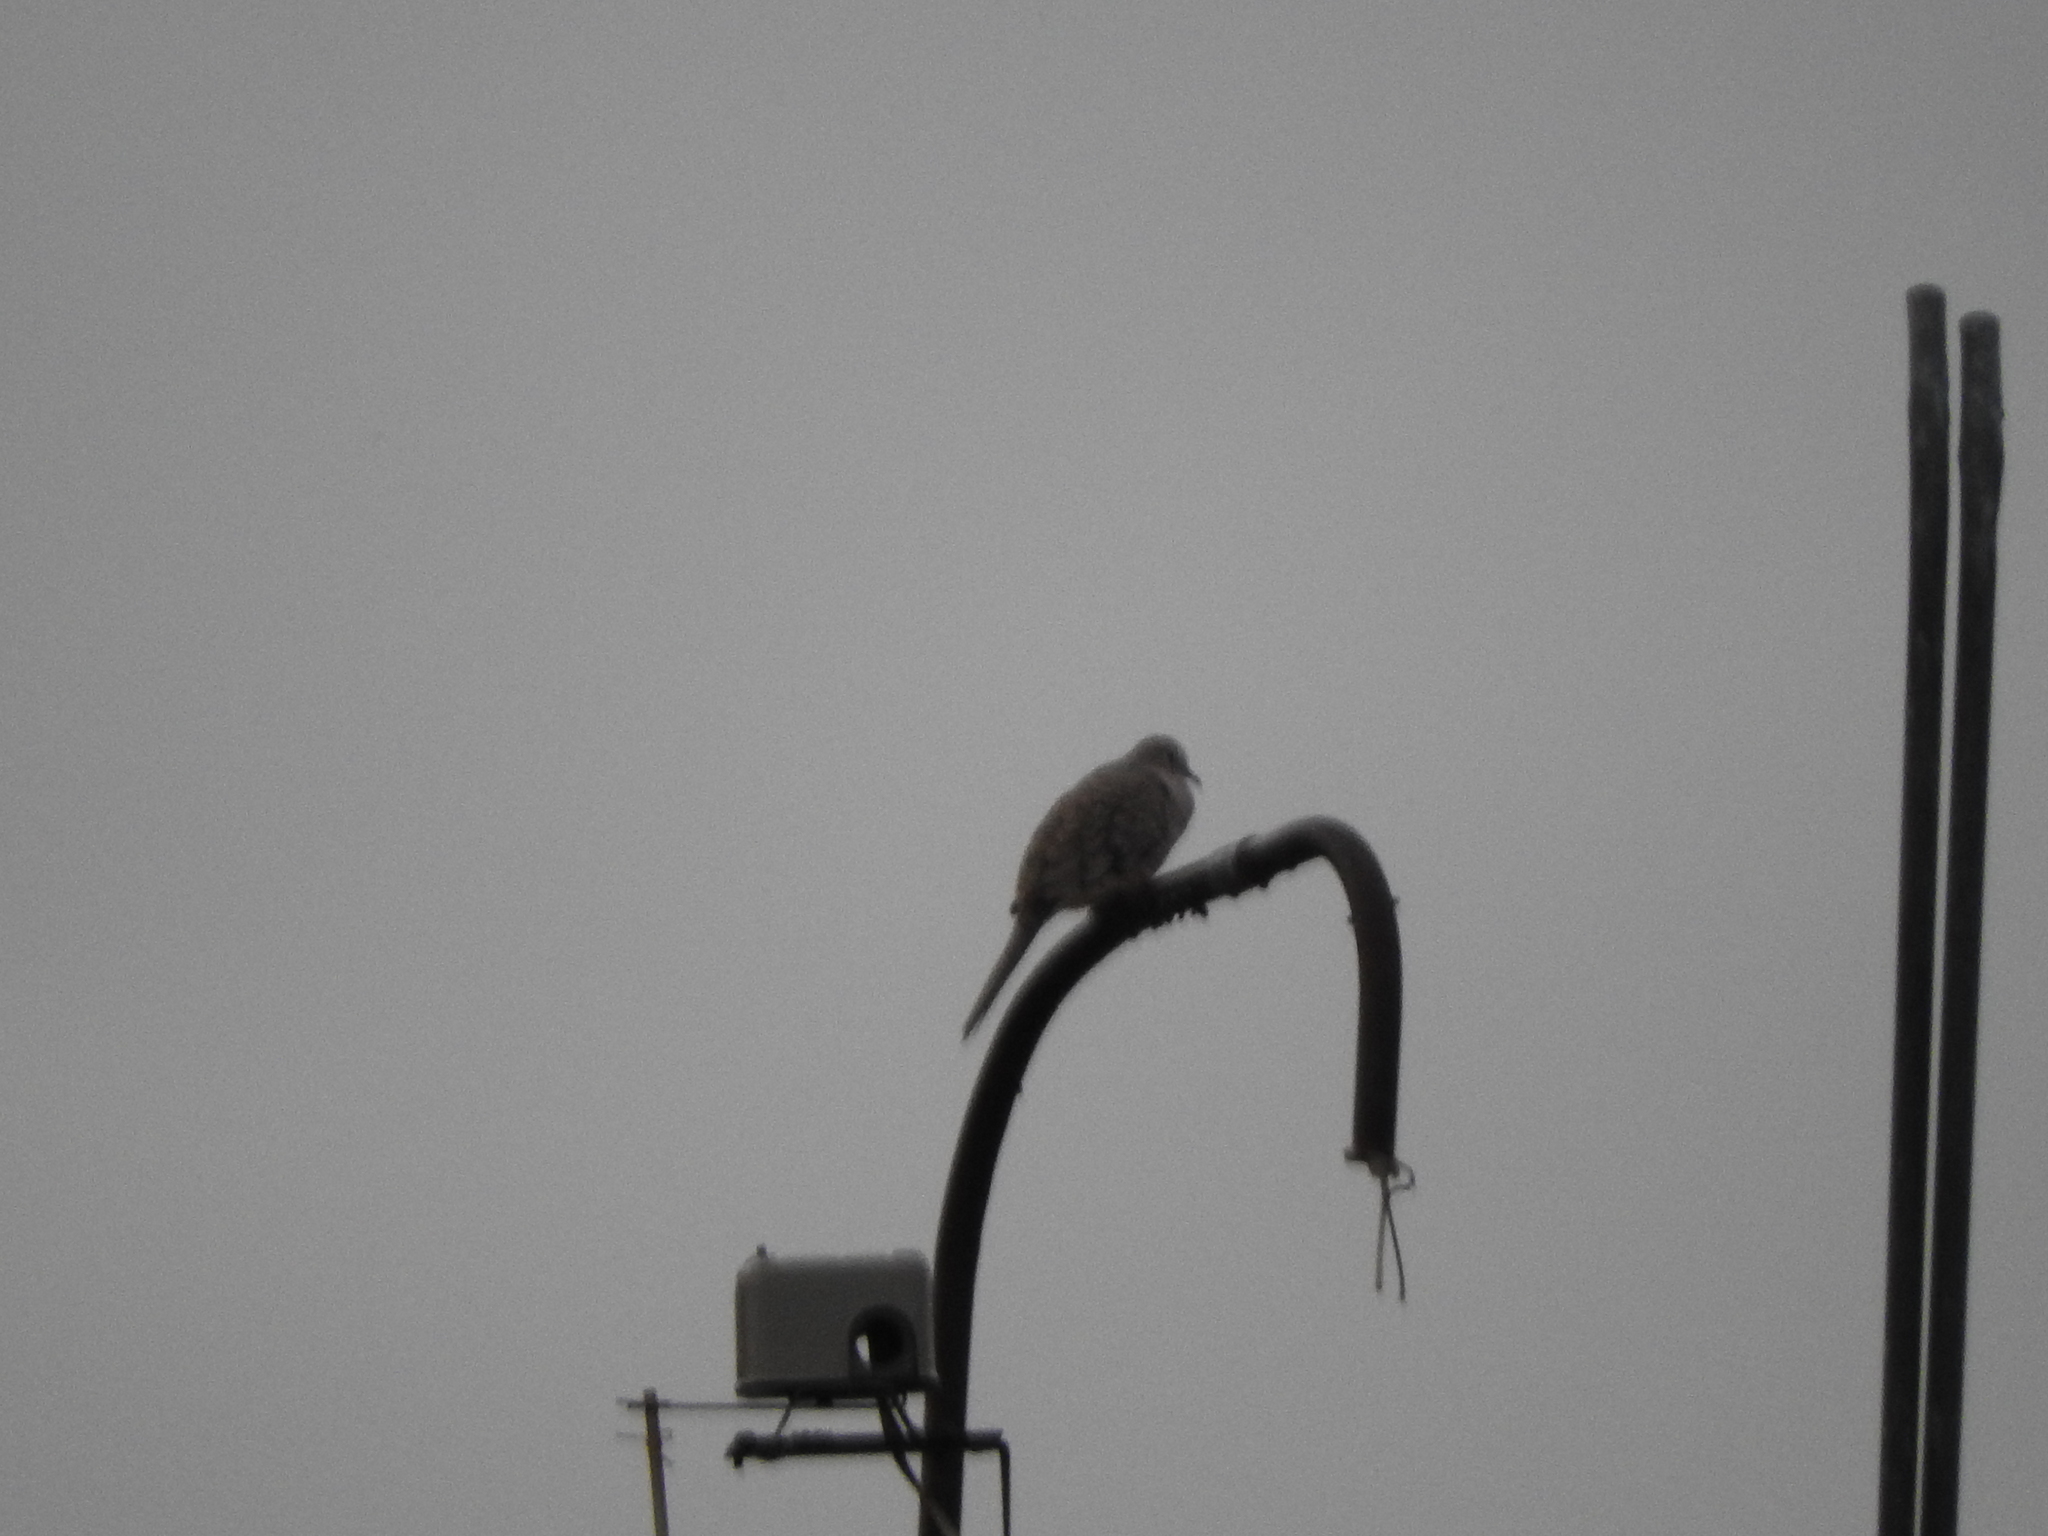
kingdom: Animalia
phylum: Chordata
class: Aves
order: Columbiformes
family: Columbidae
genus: Columbina
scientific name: Columbina inca
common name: Inca dove
